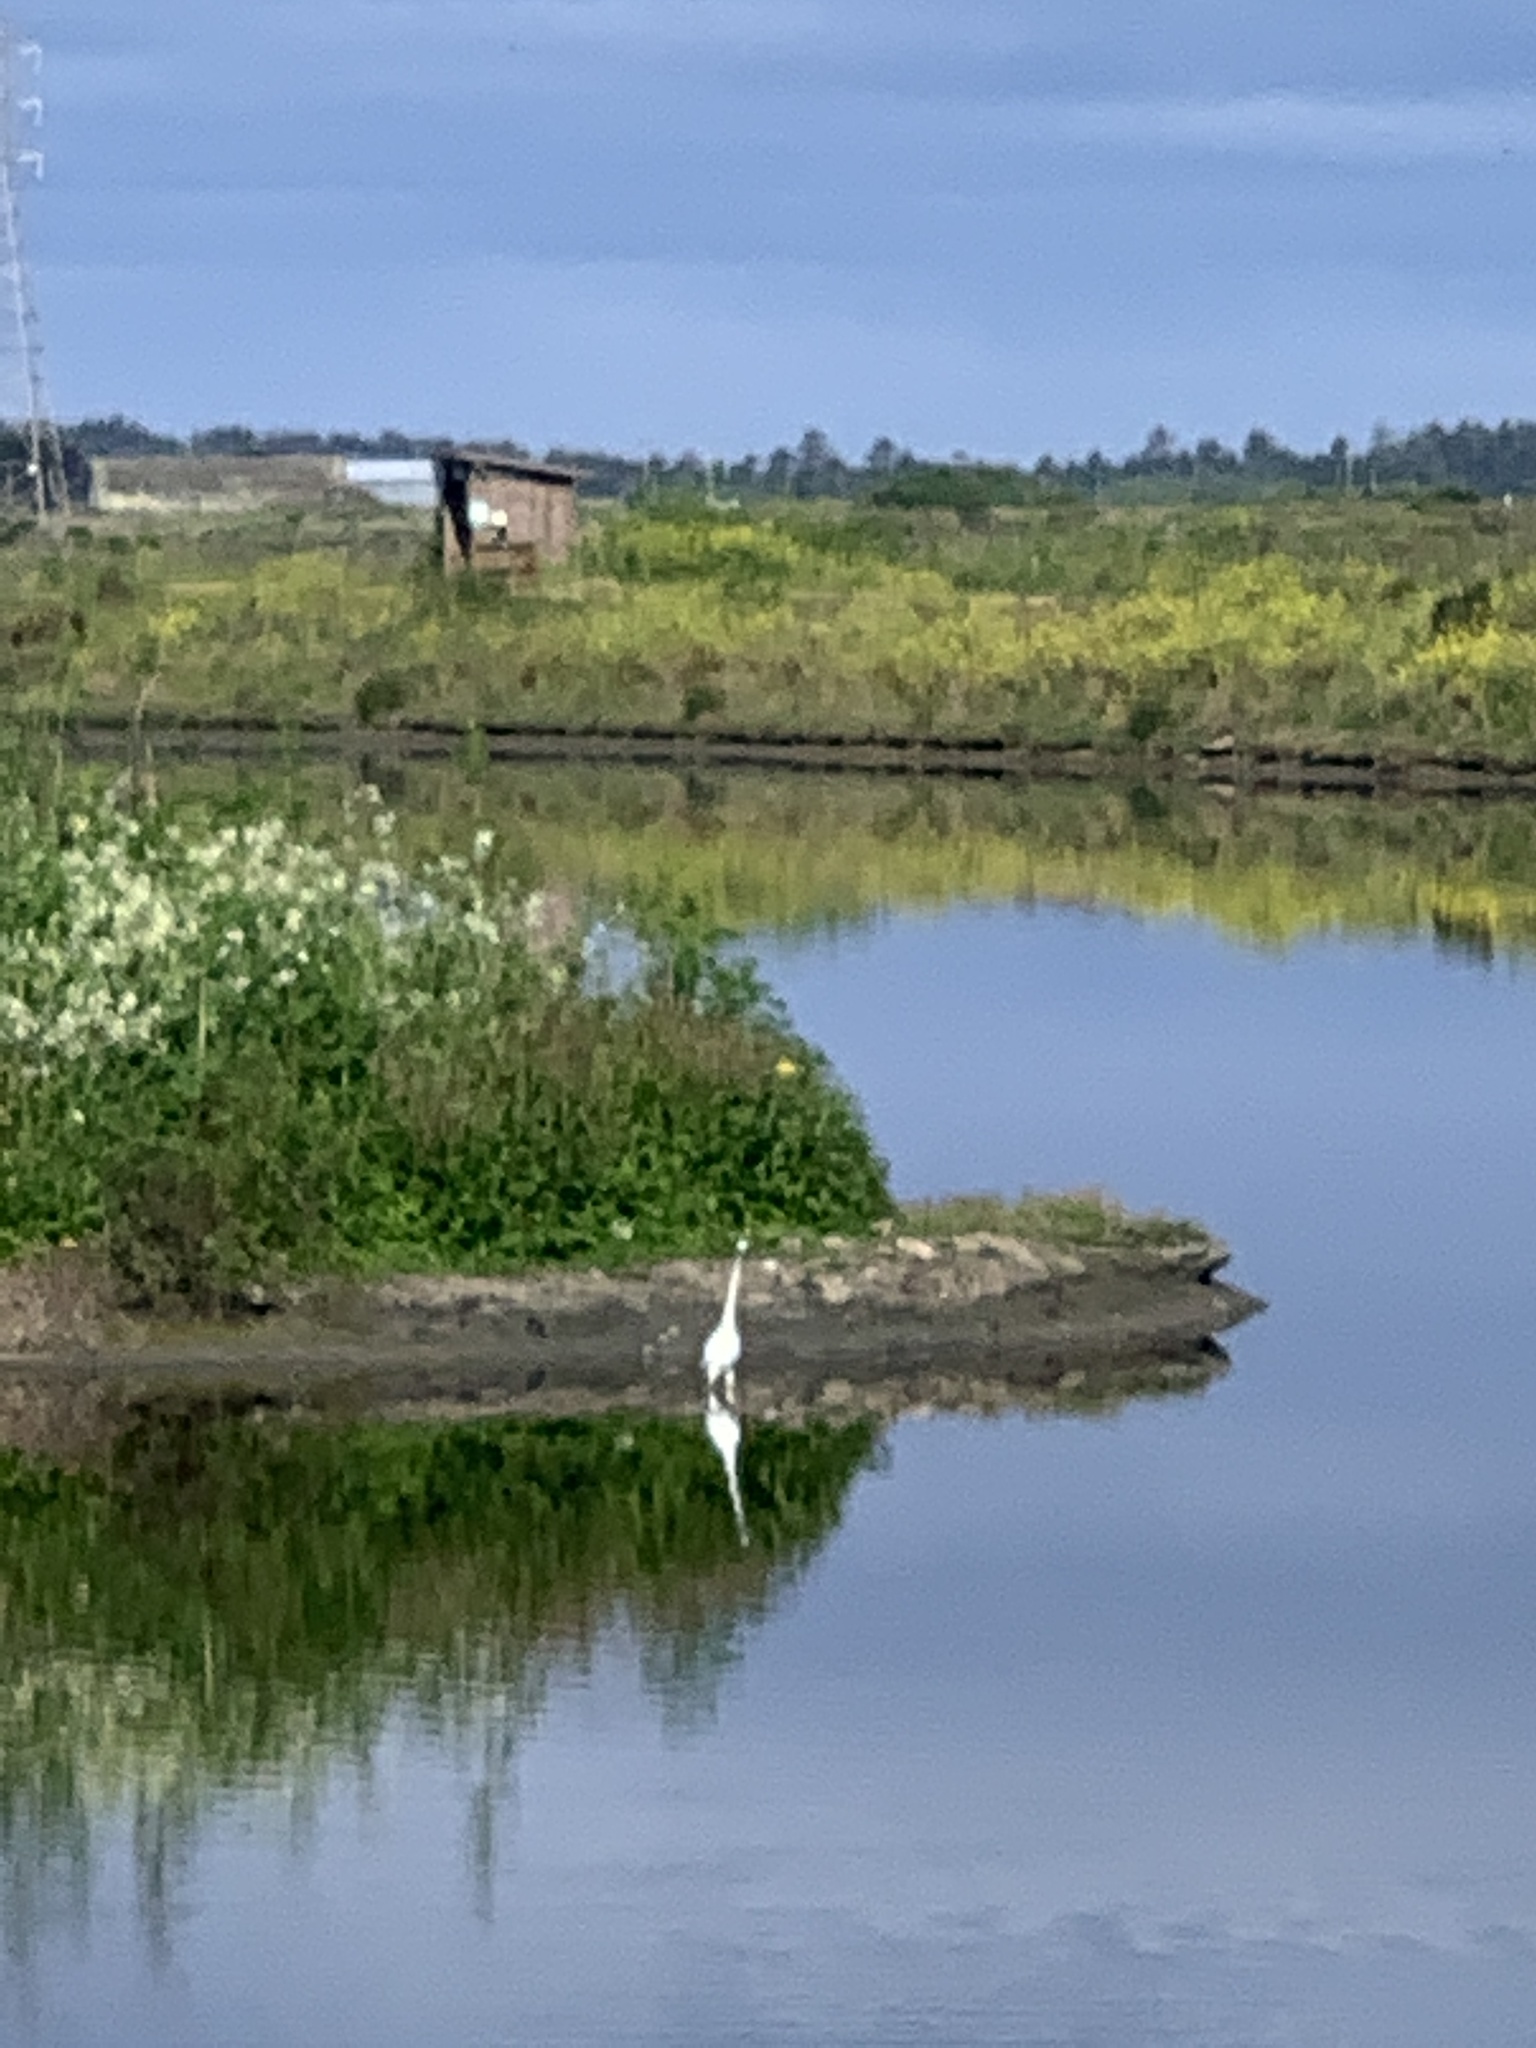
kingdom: Animalia
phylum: Chordata
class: Aves
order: Pelecaniformes
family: Ardeidae
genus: Ardea
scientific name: Ardea alba
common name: Great egret
